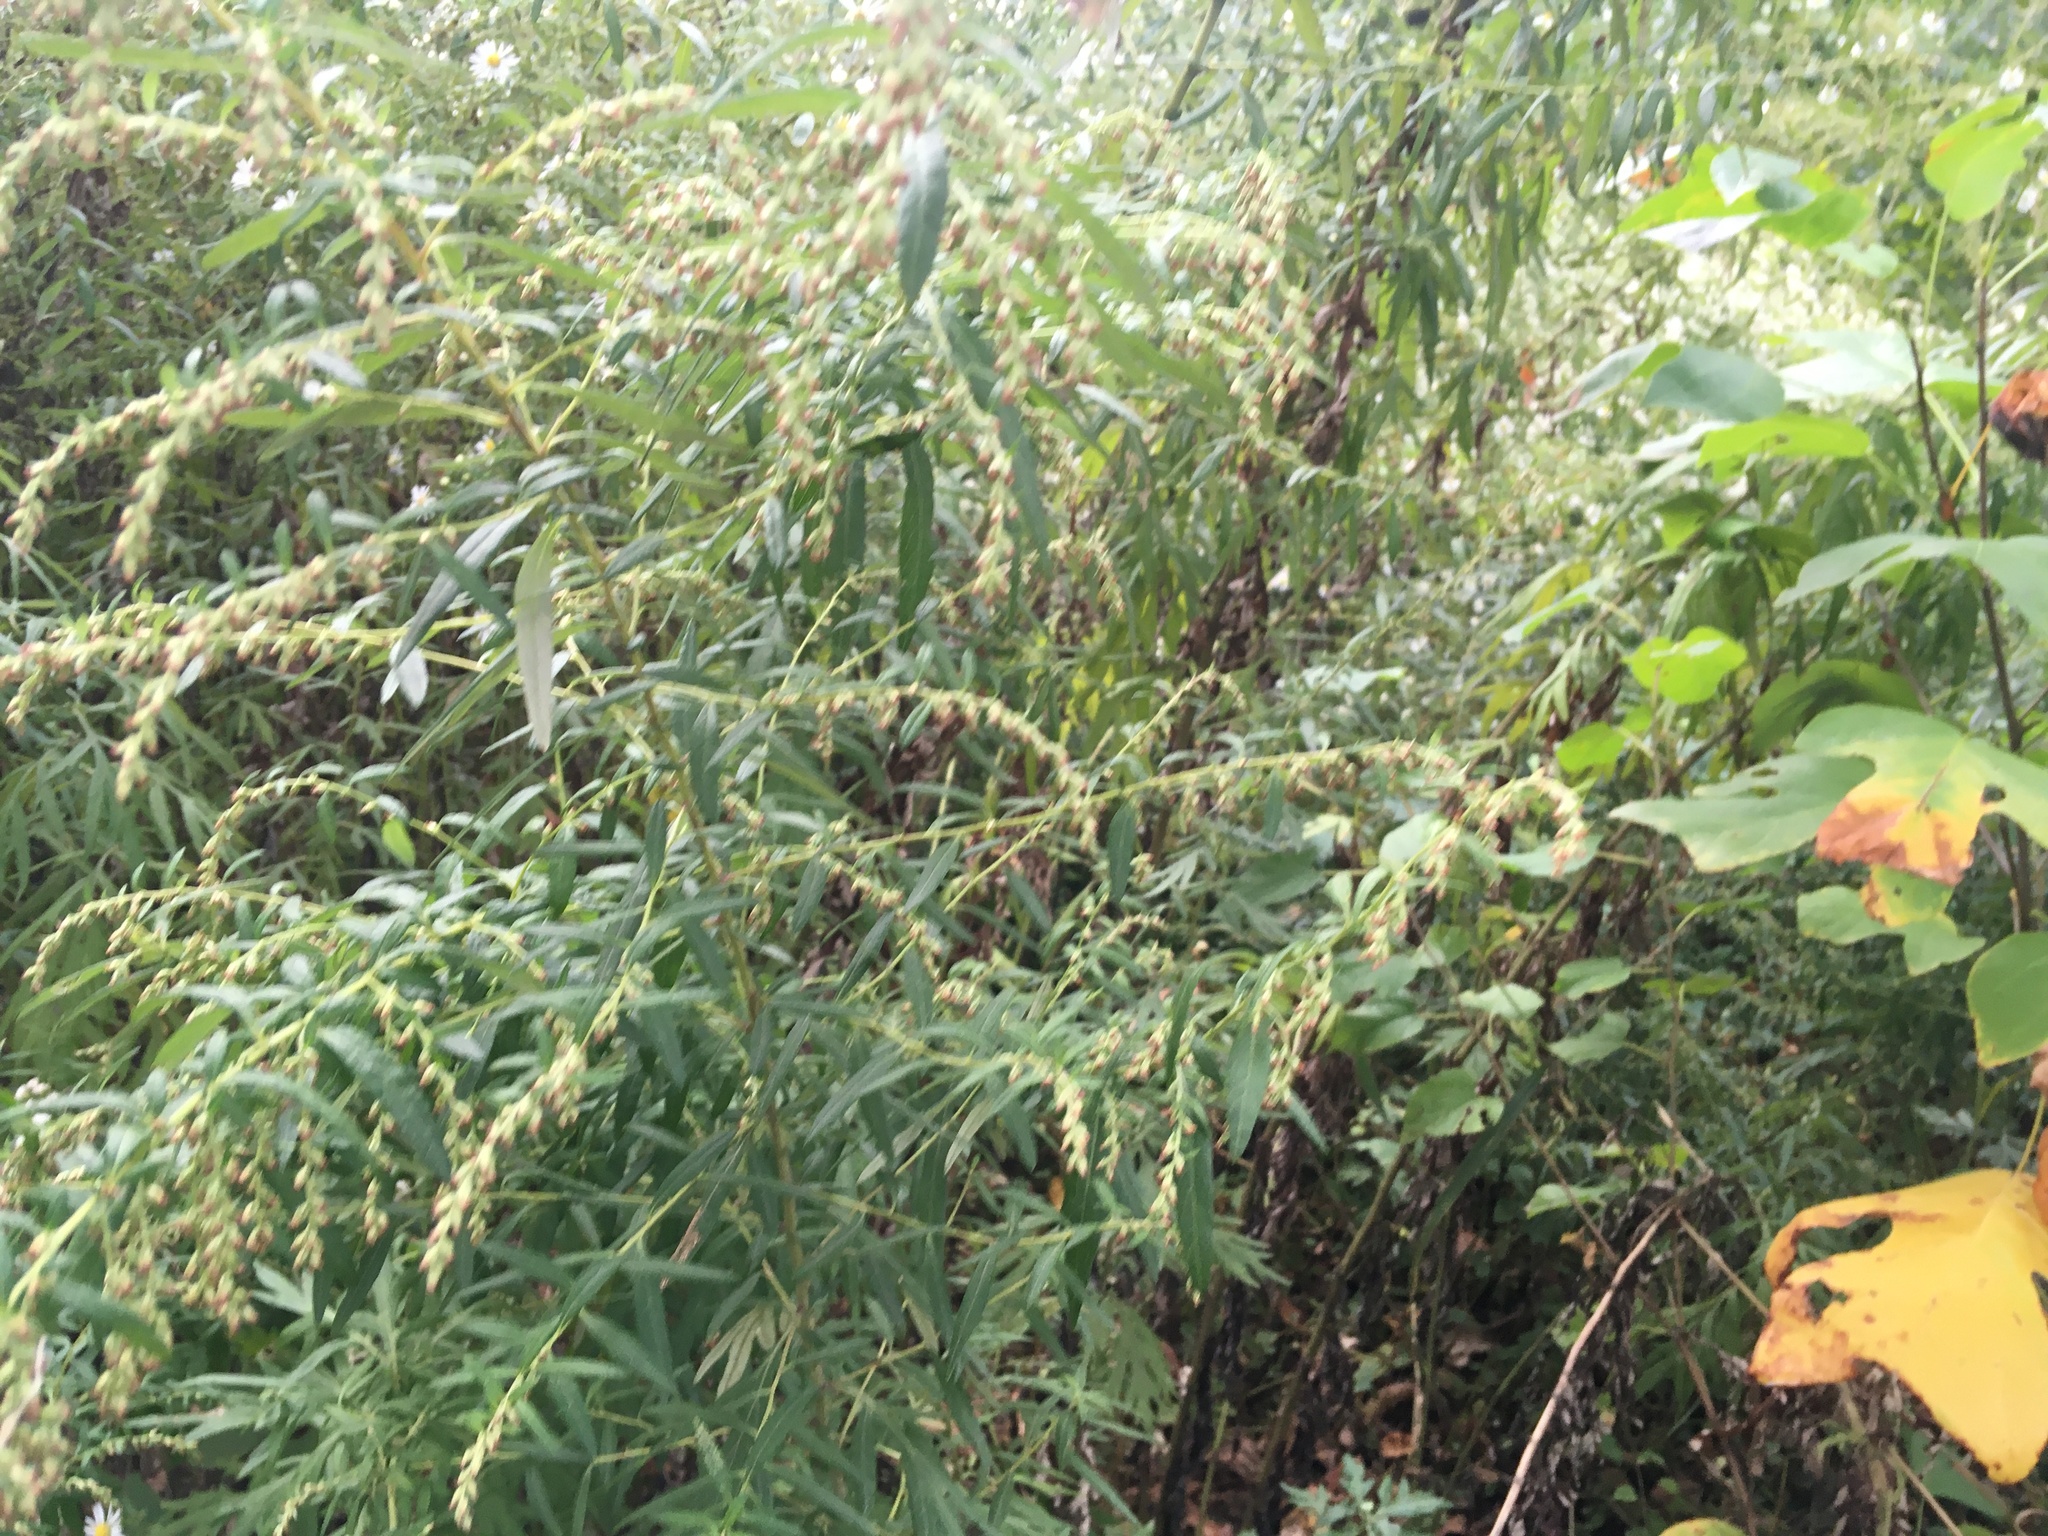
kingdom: Plantae
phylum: Tracheophyta
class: Magnoliopsida
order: Asterales
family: Asteraceae
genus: Artemisia
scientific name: Artemisia vulgaris
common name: Mugwort
